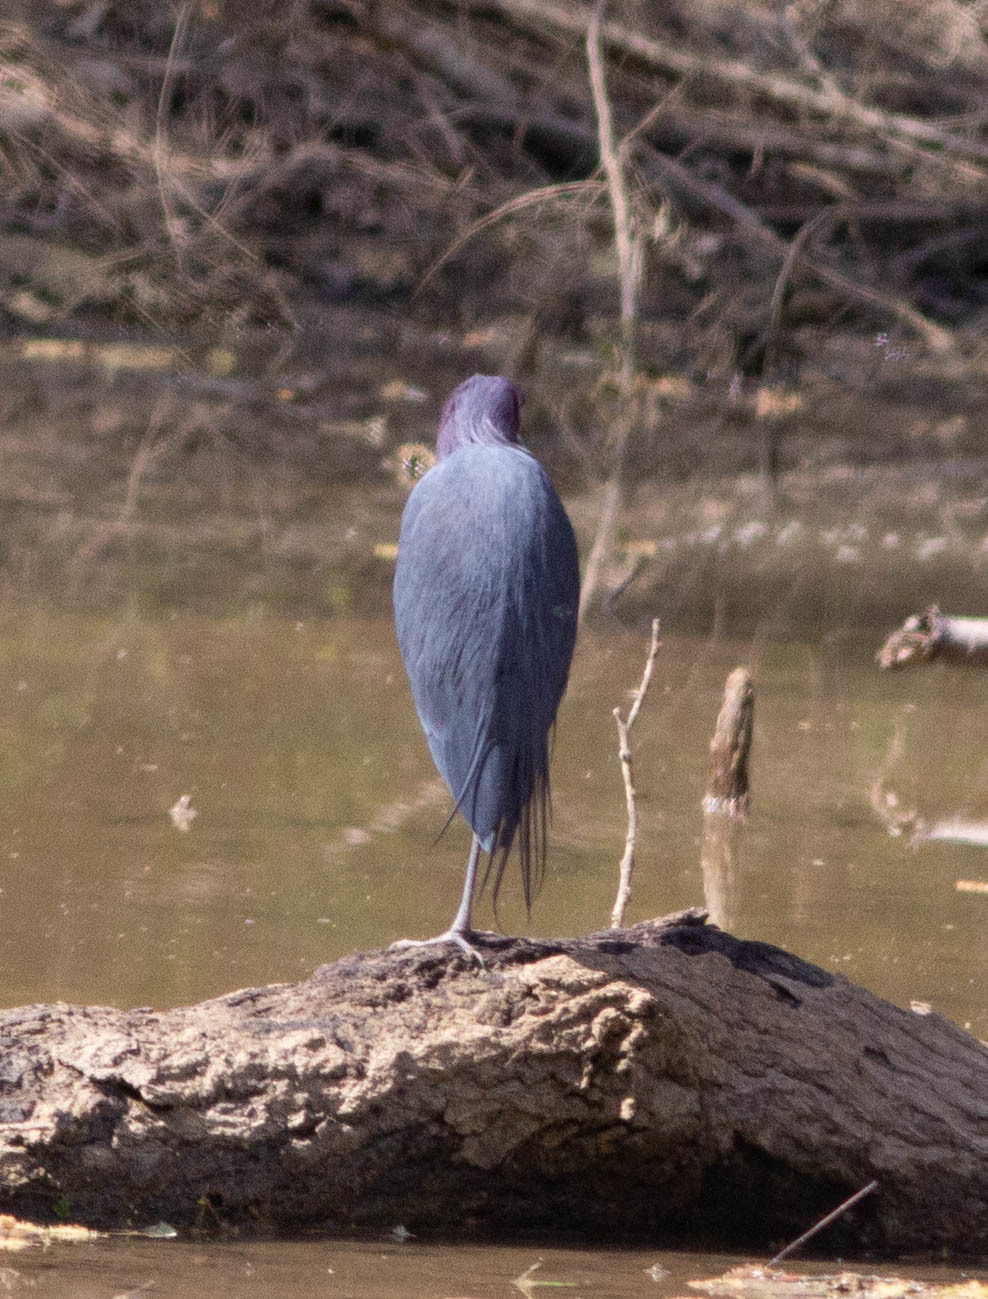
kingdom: Animalia
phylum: Chordata
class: Aves
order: Pelecaniformes
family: Ardeidae
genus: Egretta
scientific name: Egretta caerulea
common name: Little blue heron
